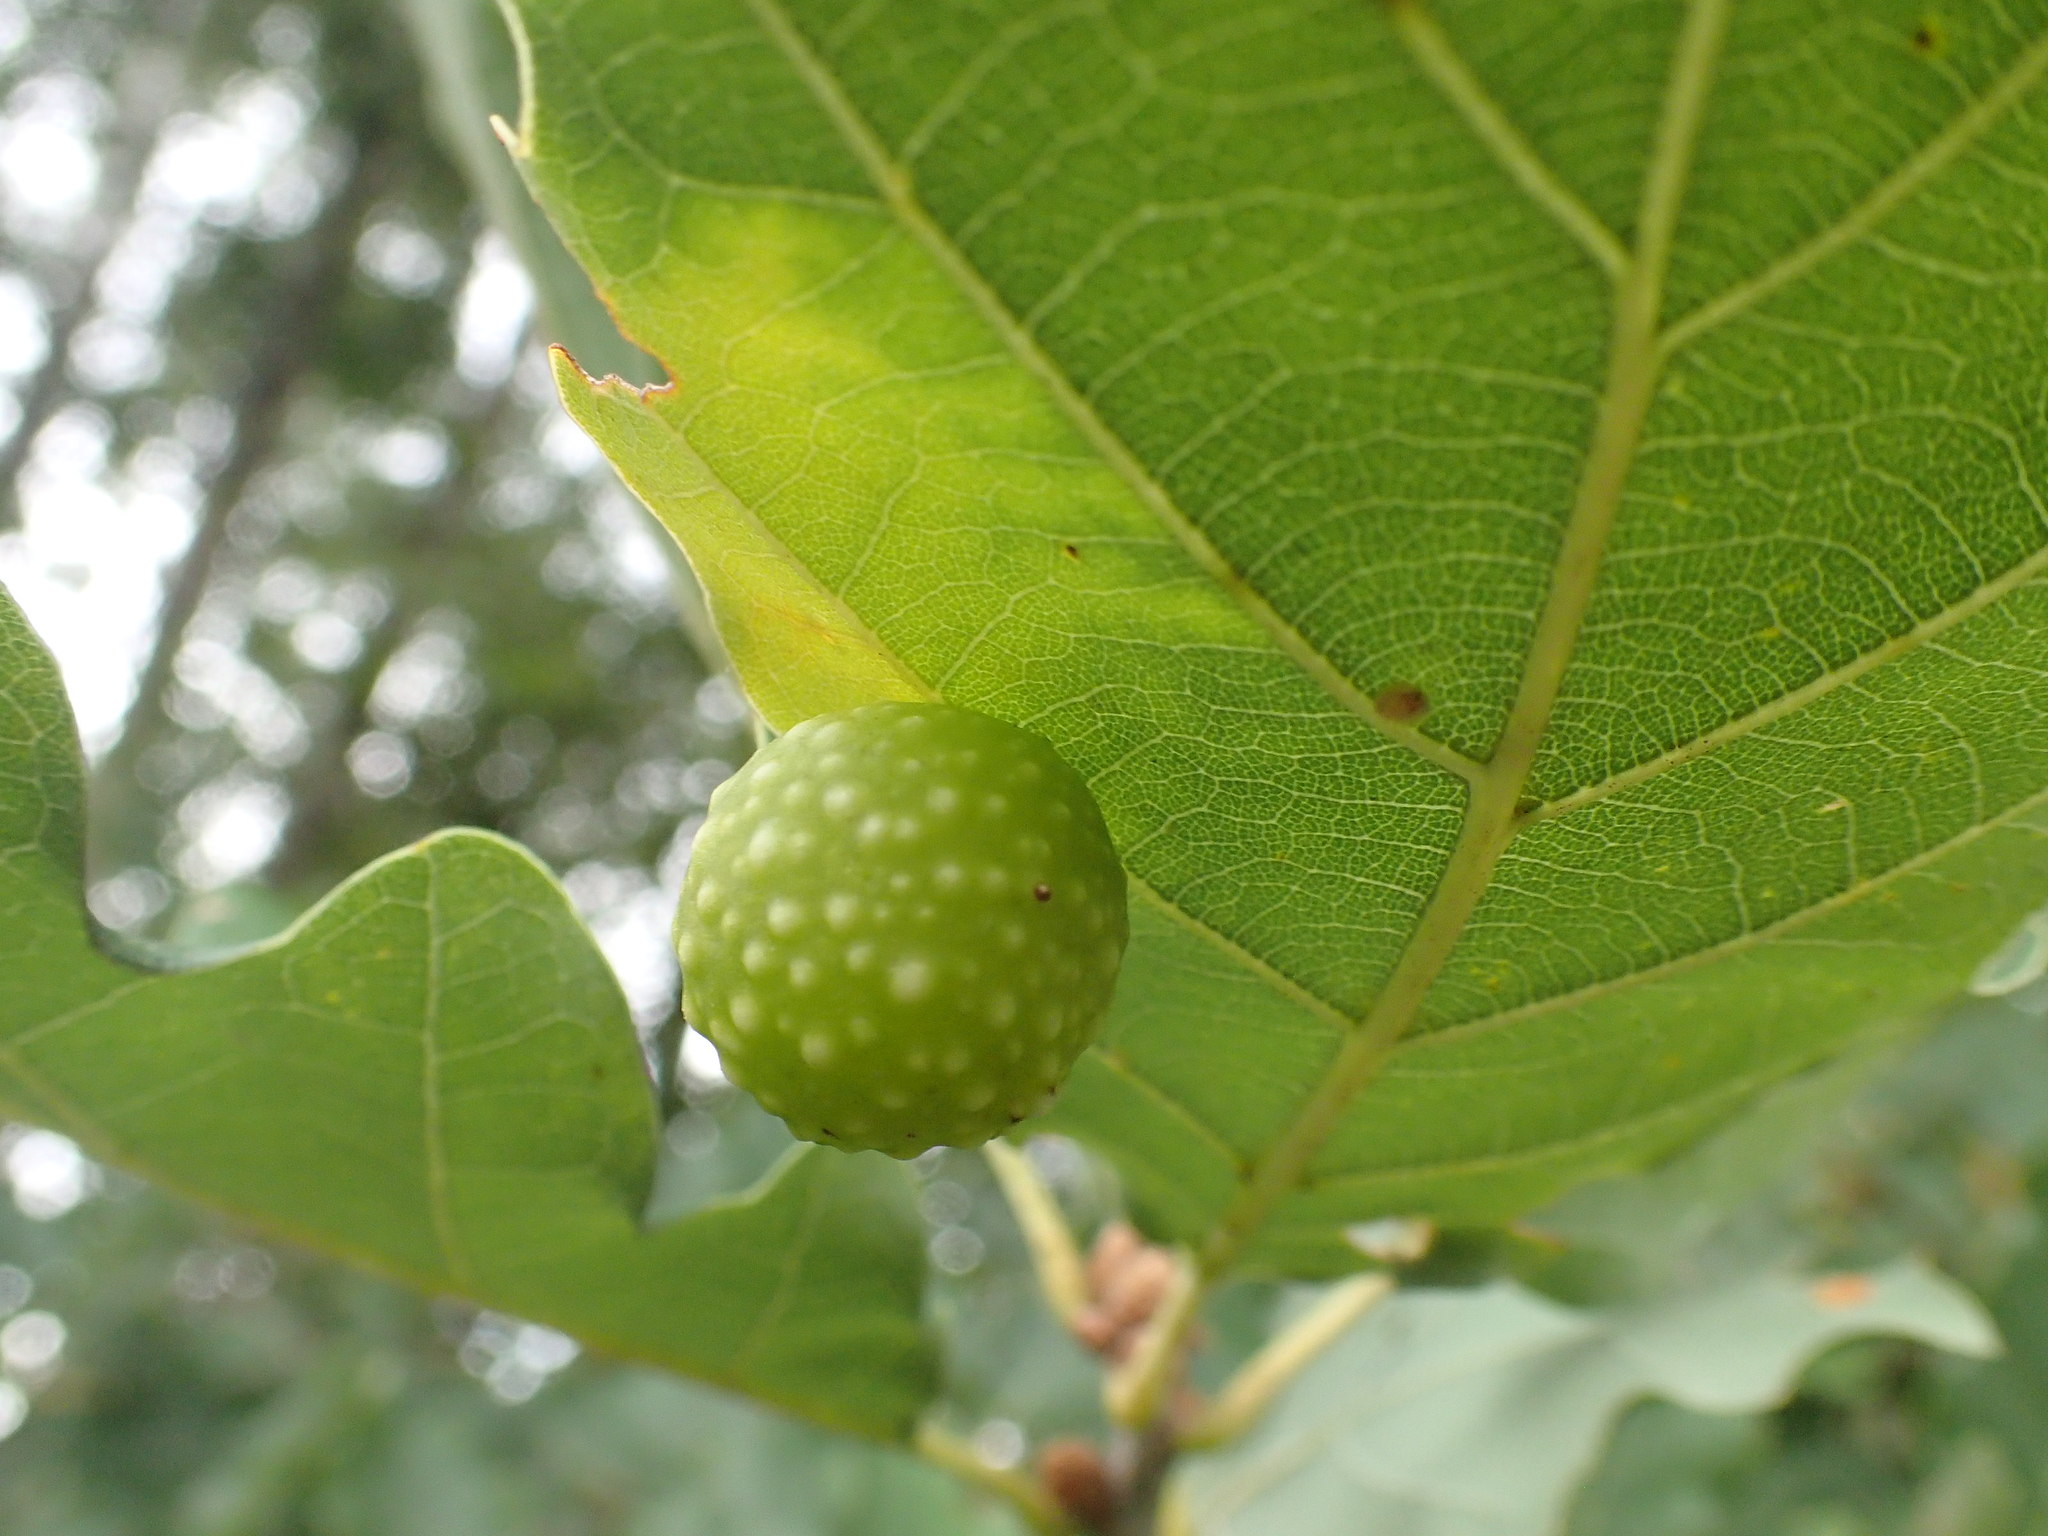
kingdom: Animalia
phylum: Arthropoda
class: Insecta
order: Hymenoptera
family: Cynipidae
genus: Cynips
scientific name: Cynips quercusfolii
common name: Cherry gall
